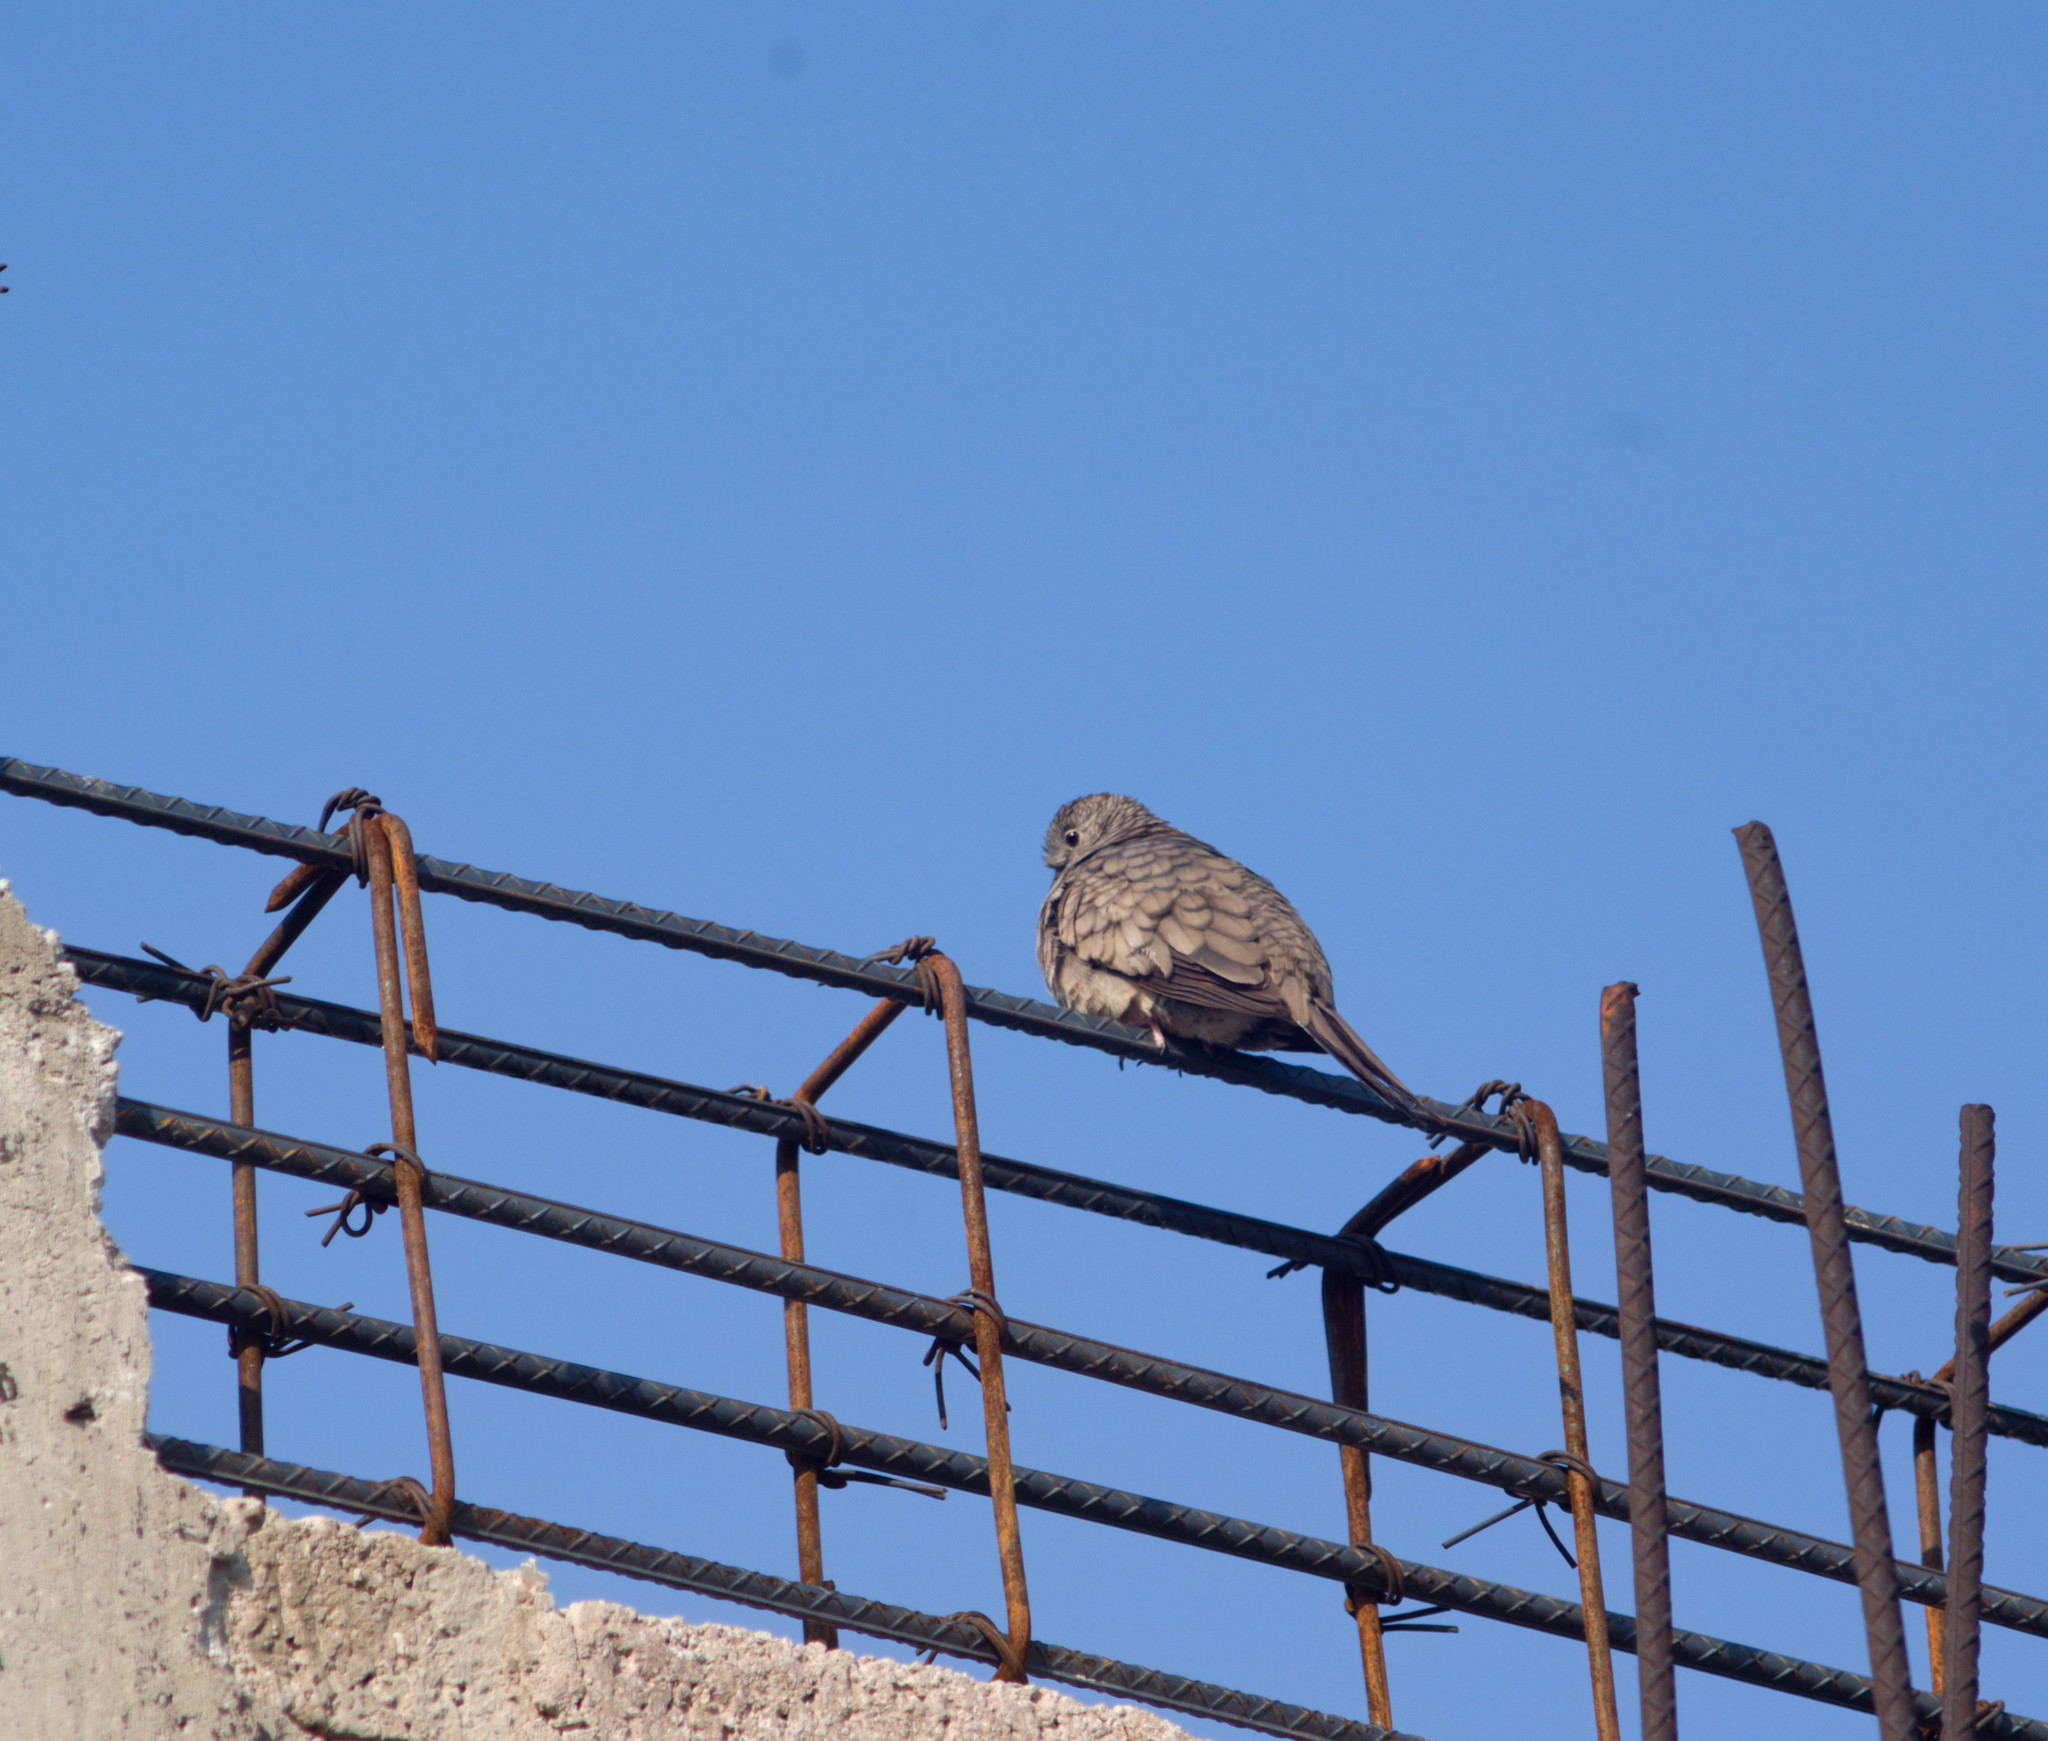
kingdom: Animalia
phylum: Chordata
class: Aves
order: Columbiformes
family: Columbidae
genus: Columbina
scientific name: Columbina inca
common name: Inca dove
